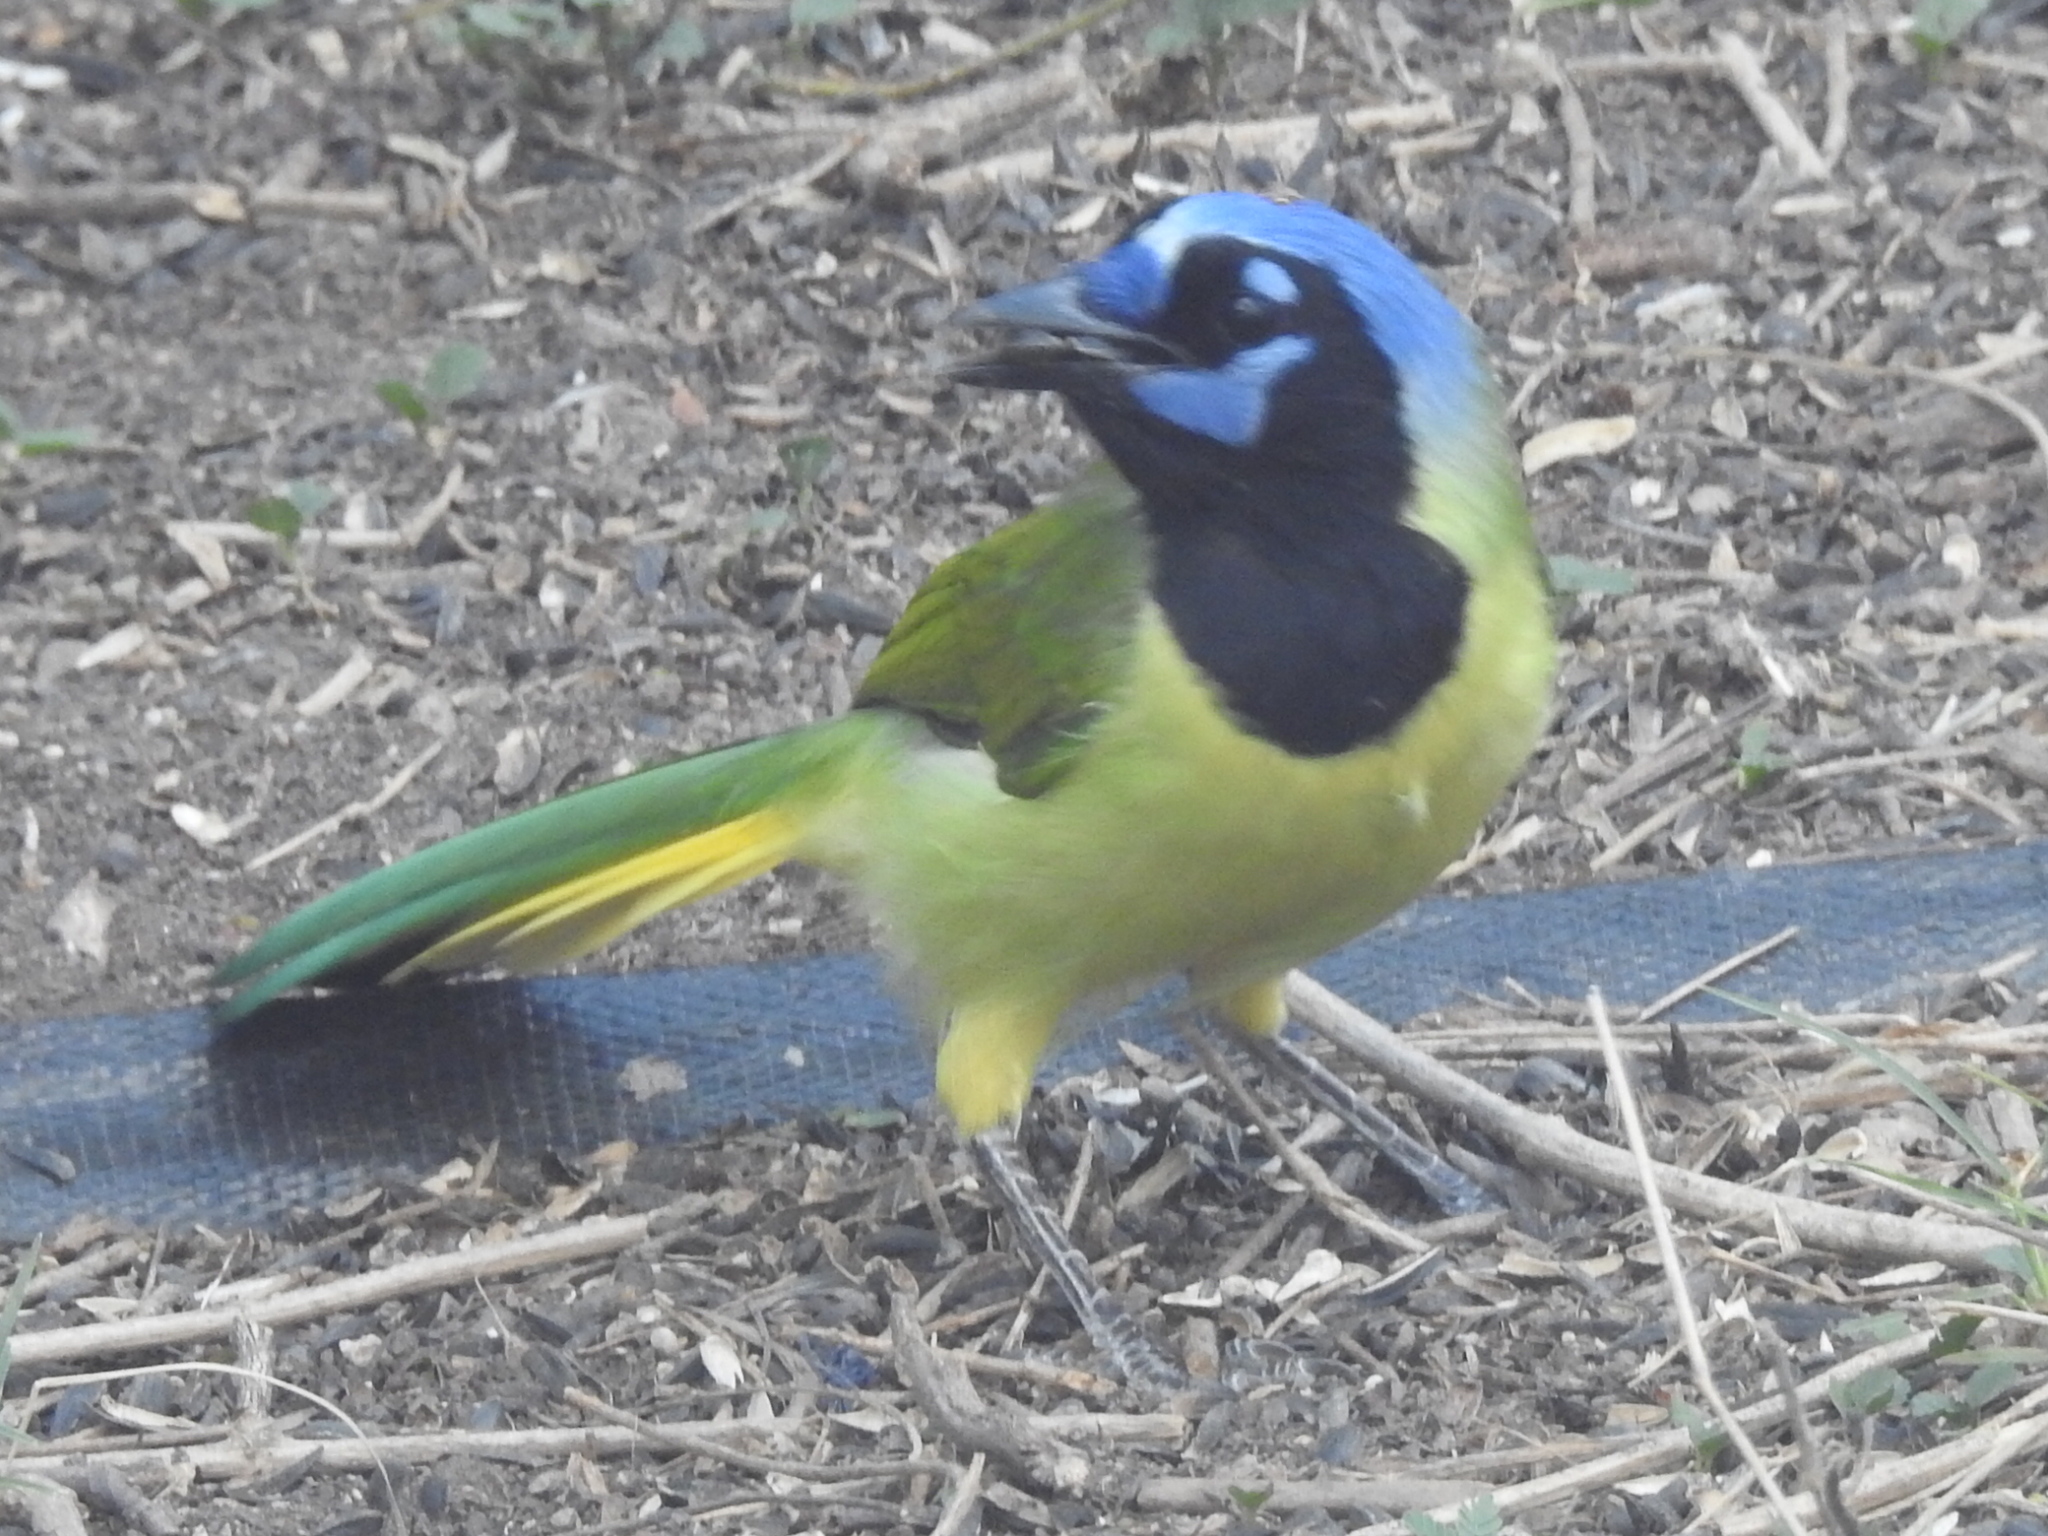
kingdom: Animalia
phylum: Chordata
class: Aves
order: Passeriformes
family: Corvidae
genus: Cyanocorax
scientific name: Cyanocorax yncas
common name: Green jay
